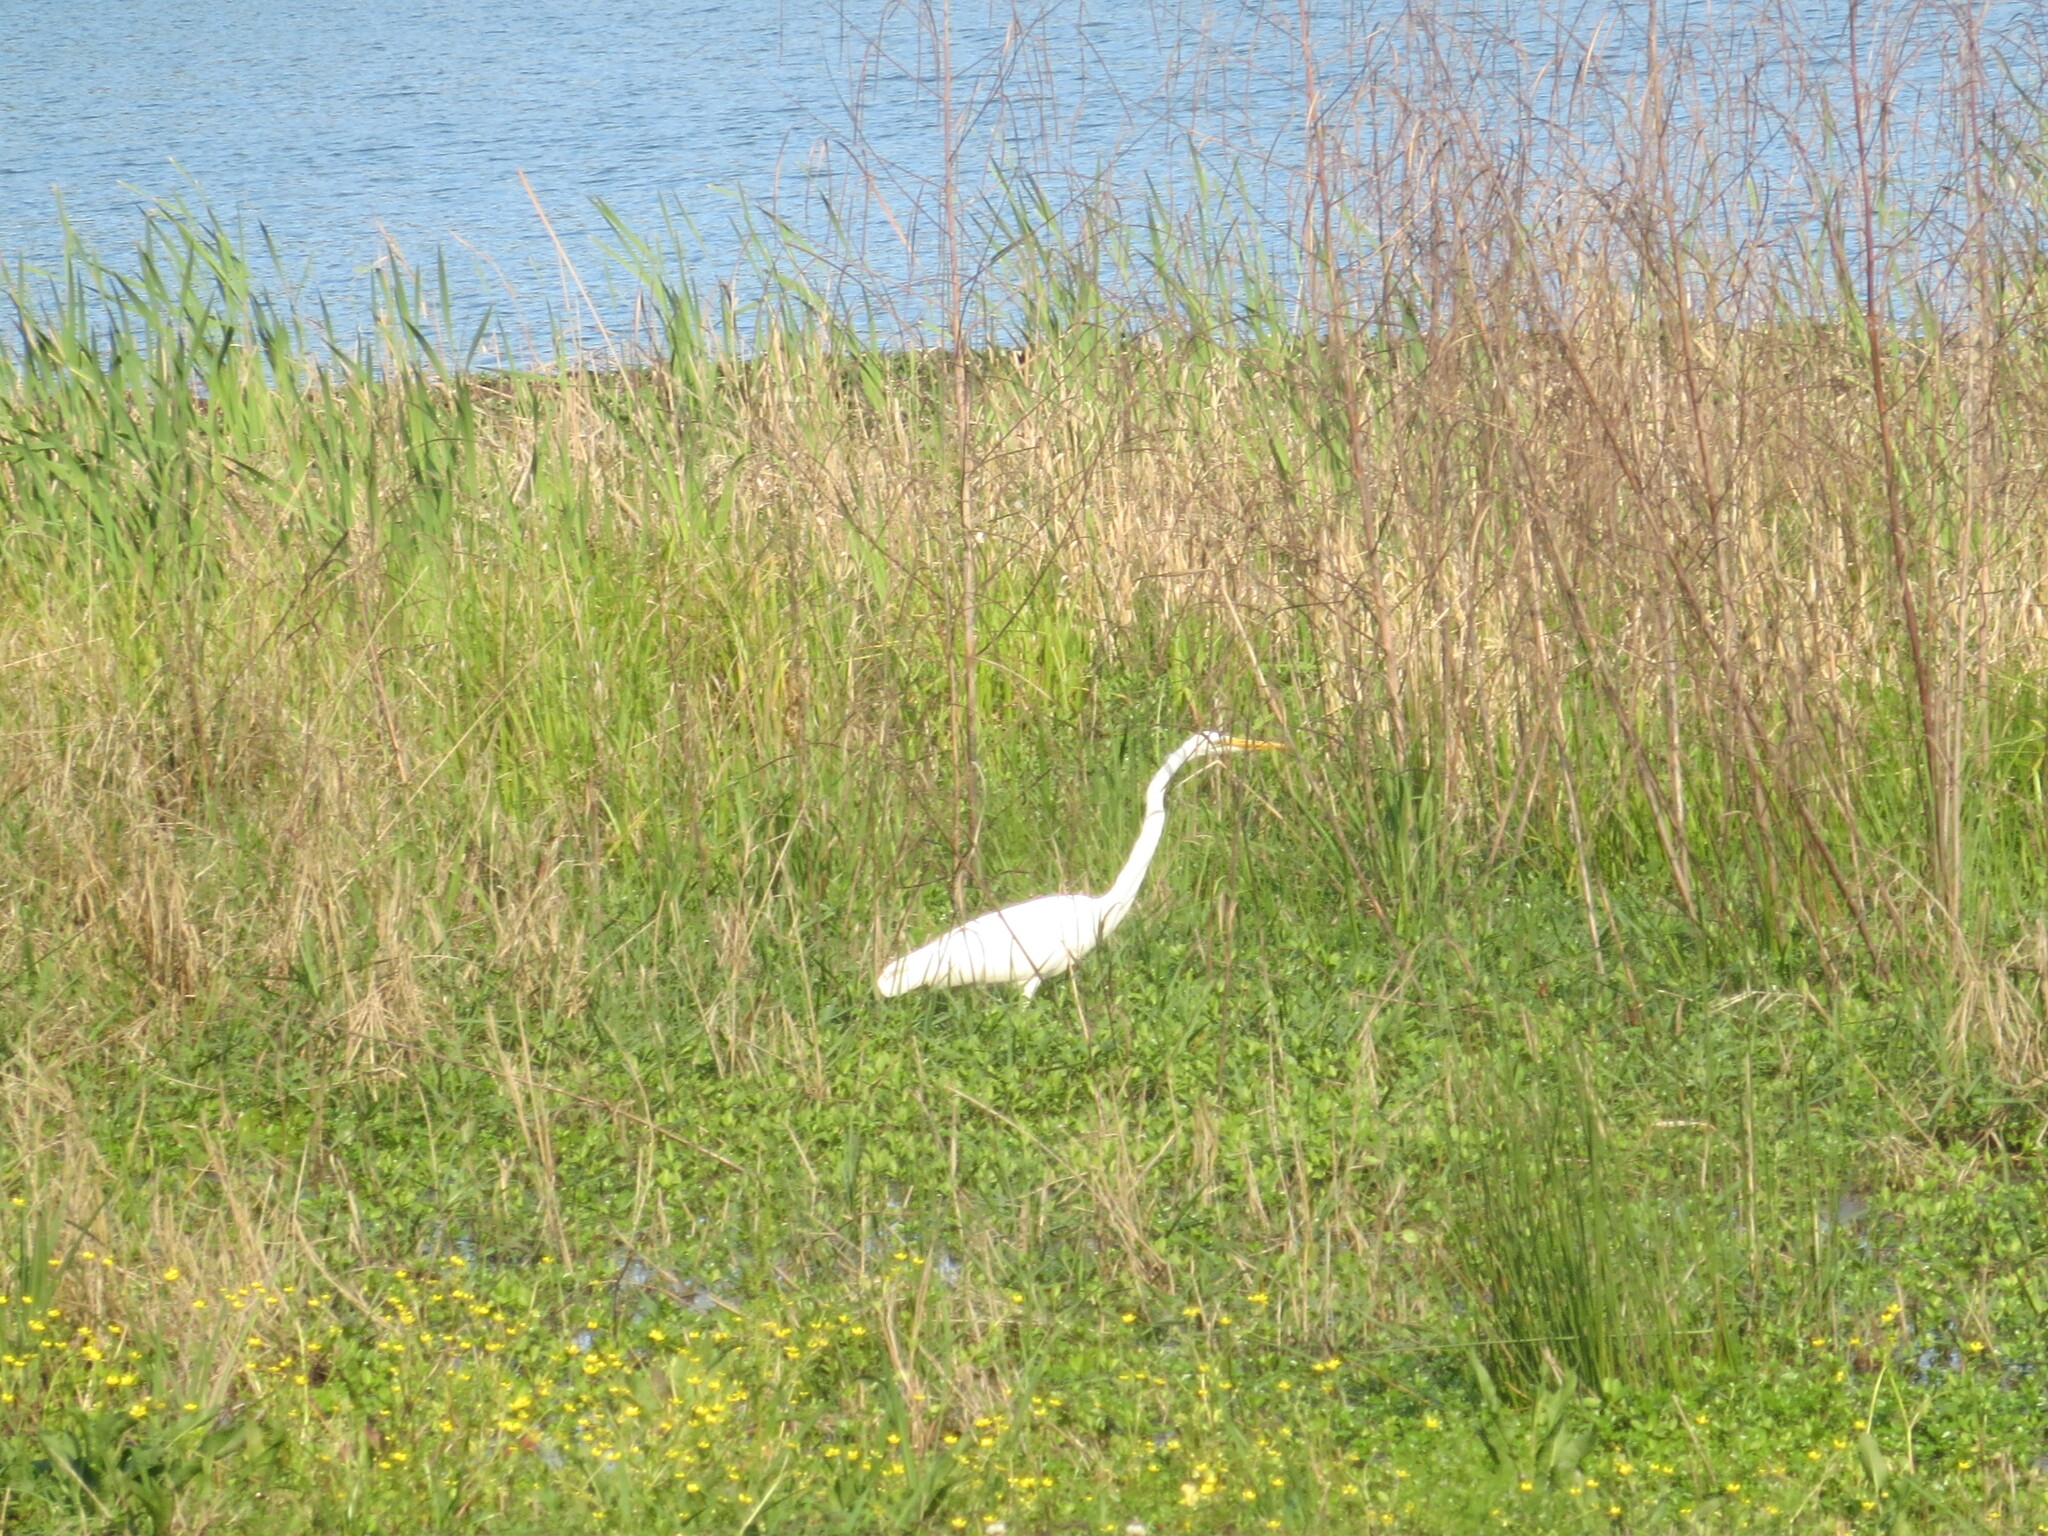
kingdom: Animalia
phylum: Chordata
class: Aves
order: Pelecaniformes
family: Ardeidae
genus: Ardea
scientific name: Ardea alba
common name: Great egret
